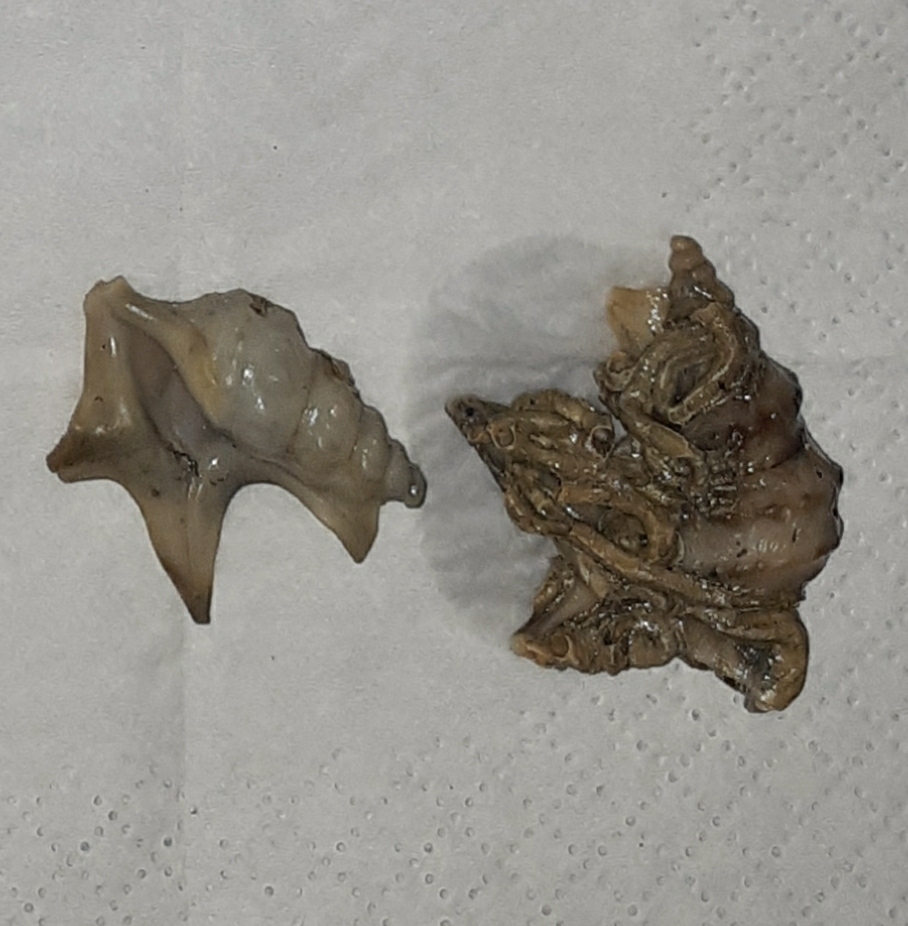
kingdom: Animalia
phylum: Mollusca
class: Gastropoda
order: Littorinimorpha
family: Aporrhaidae
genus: Aporrhais
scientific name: Aporrhais pespelecani
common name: Common pelican’s foot
